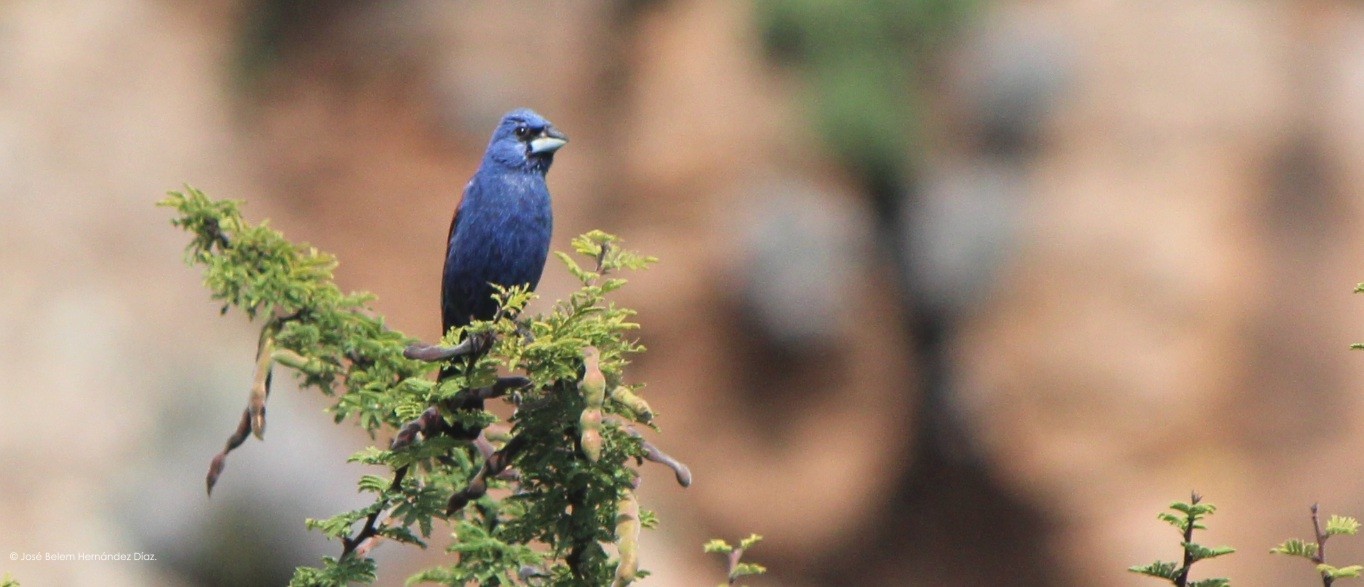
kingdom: Animalia
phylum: Chordata
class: Aves
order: Passeriformes
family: Cardinalidae
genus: Passerina
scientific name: Passerina caerulea
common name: Blue grosbeak
